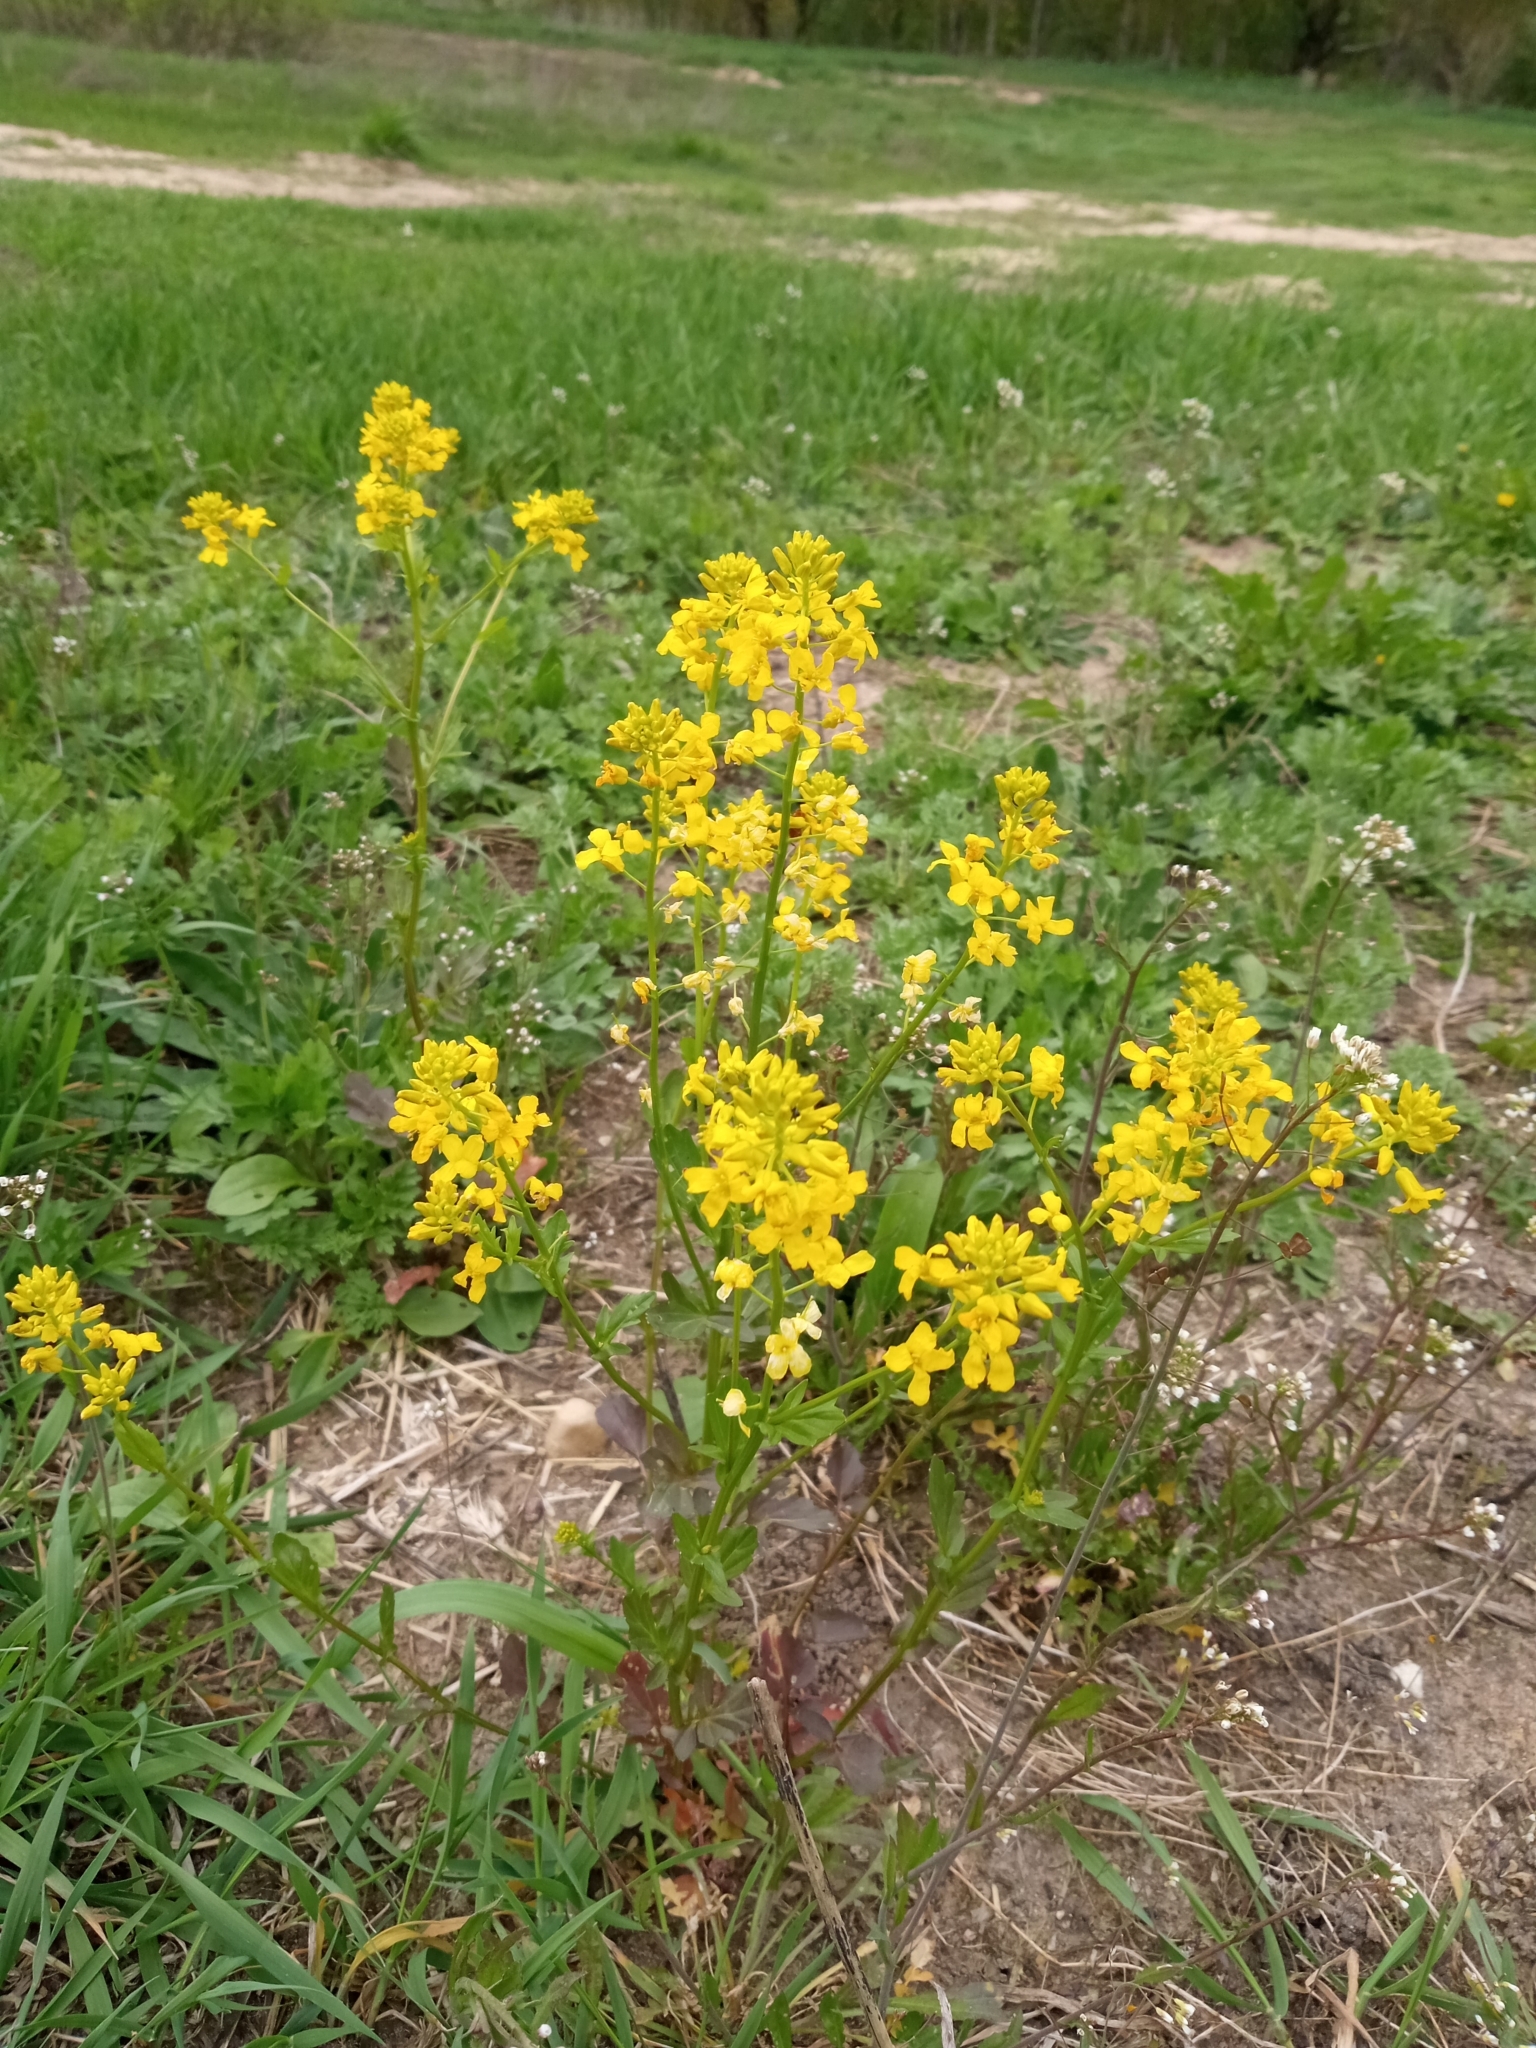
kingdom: Plantae
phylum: Tracheophyta
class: Magnoliopsida
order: Brassicales
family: Brassicaceae
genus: Barbarea
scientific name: Barbarea vulgaris
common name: Cressy-greens
